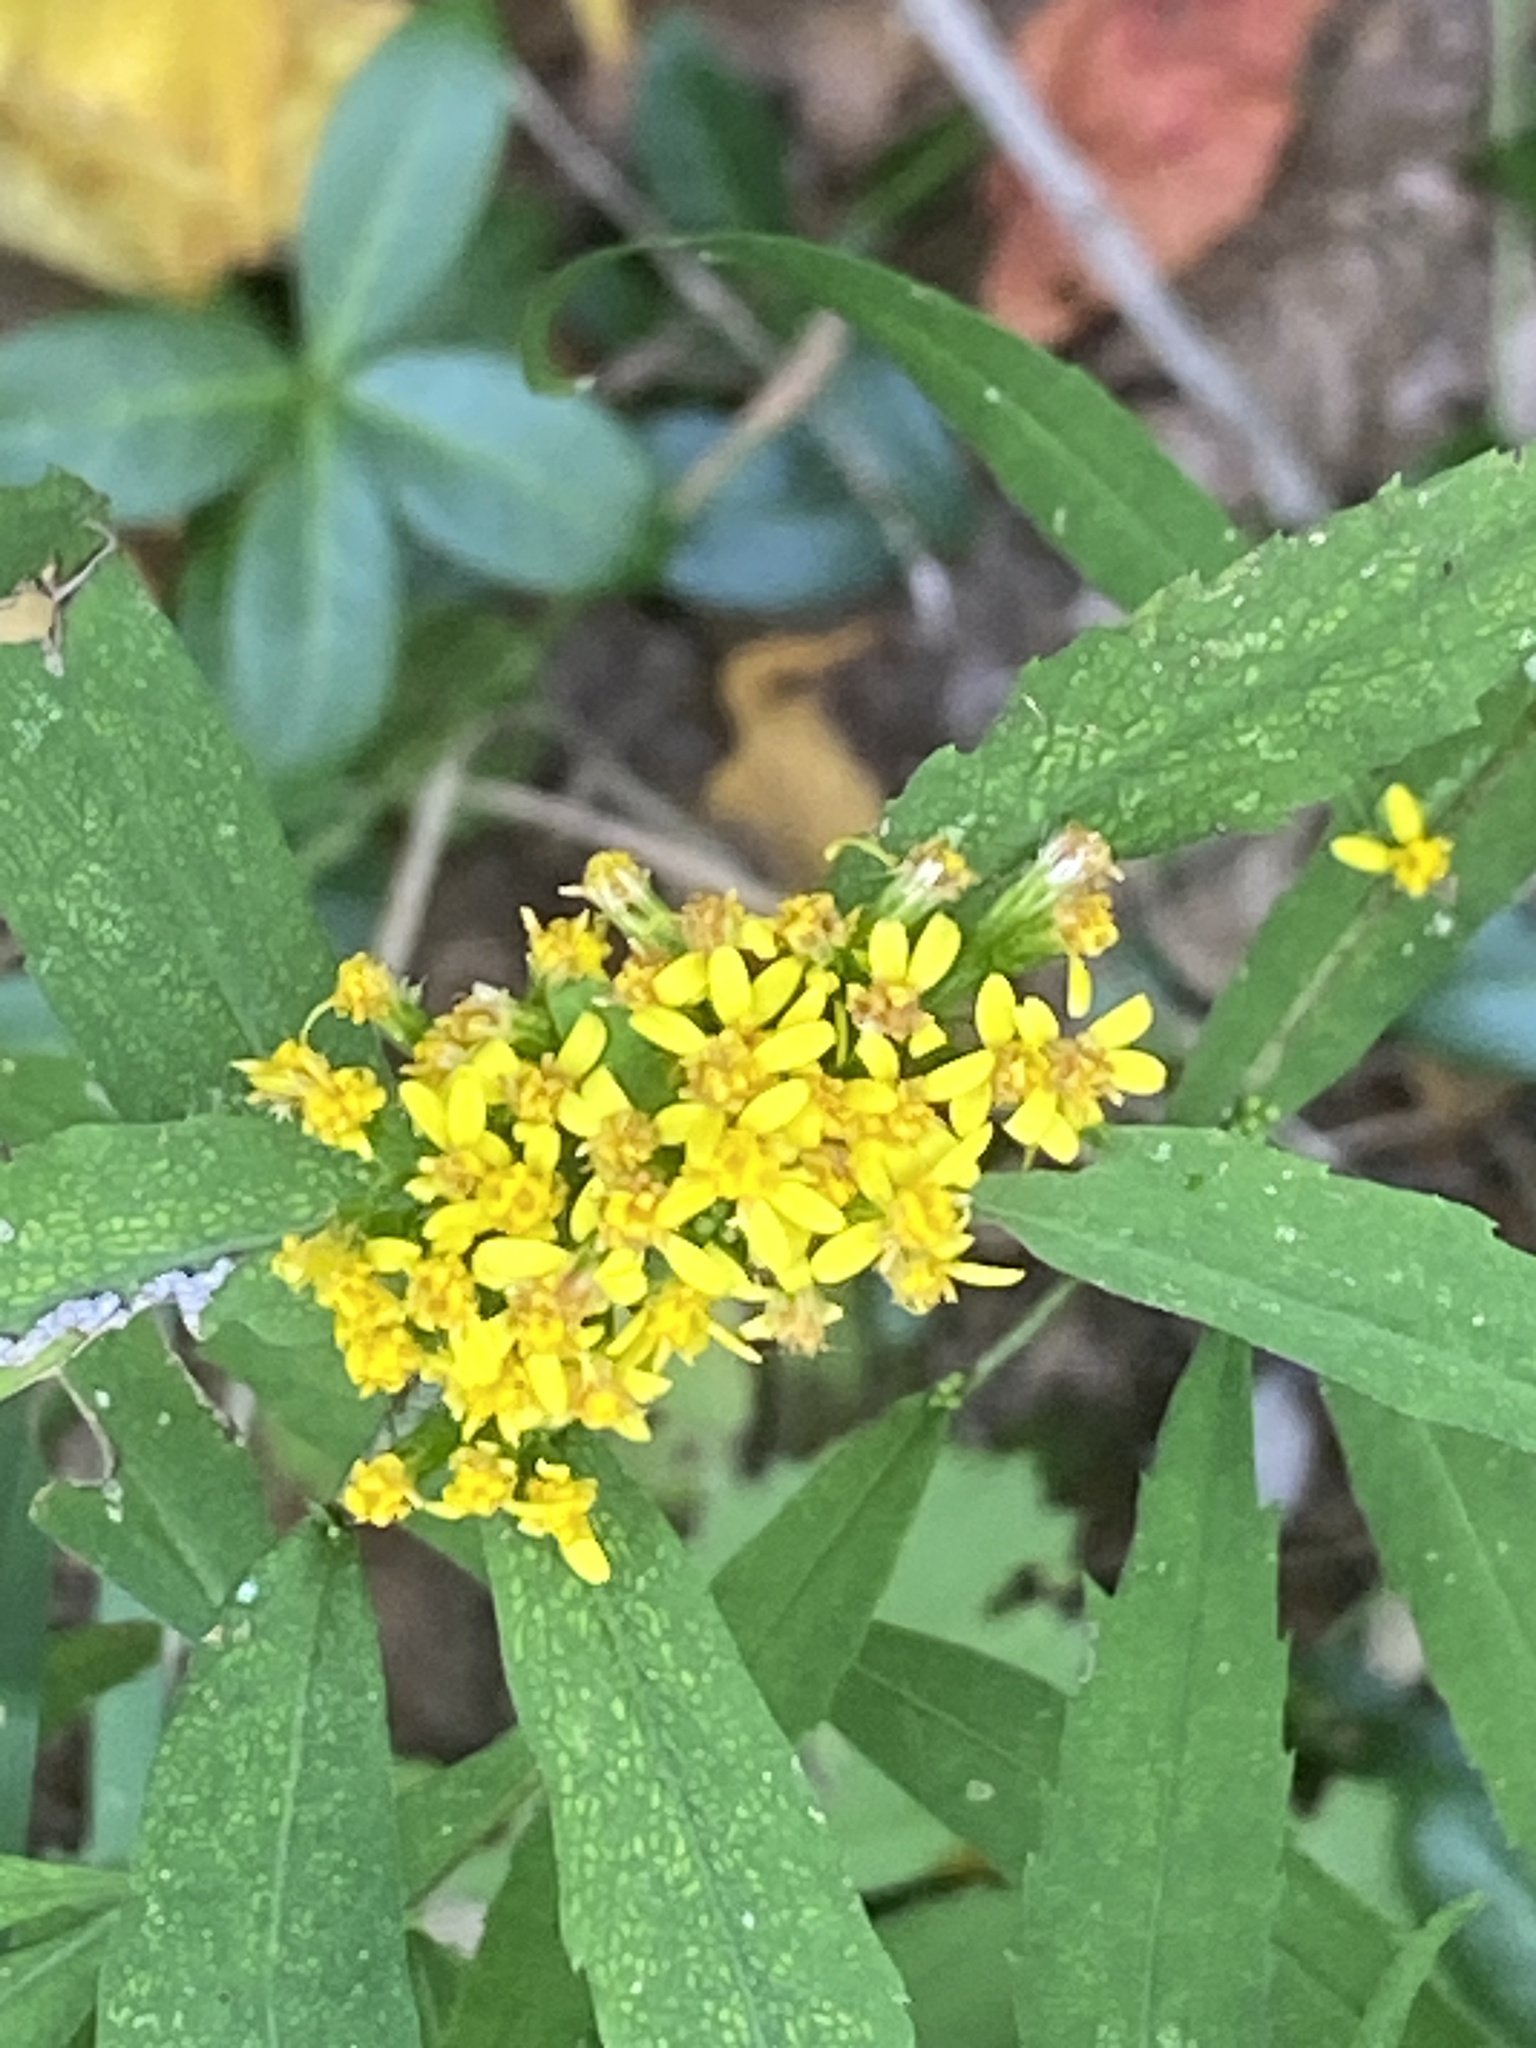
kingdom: Plantae
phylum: Tracheophyta
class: Magnoliopsida
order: Asterales
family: Asteraceae
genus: Solidago
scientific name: Solidago caesia
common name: Woodland goldenrod
